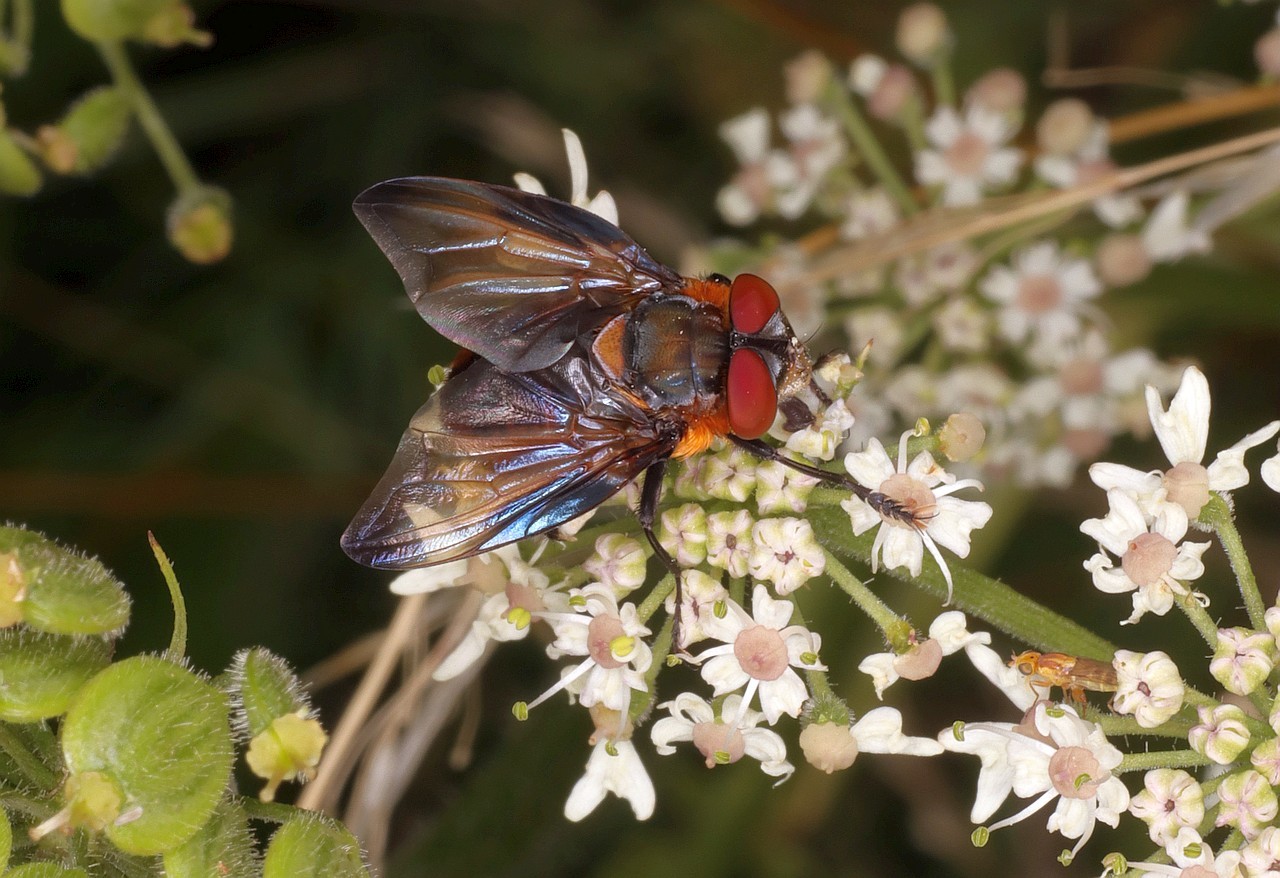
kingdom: Animalia
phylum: Arthropoda
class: Insecta
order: Diptera
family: Tachinidae
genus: Phasia
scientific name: Phasia hemiptera
